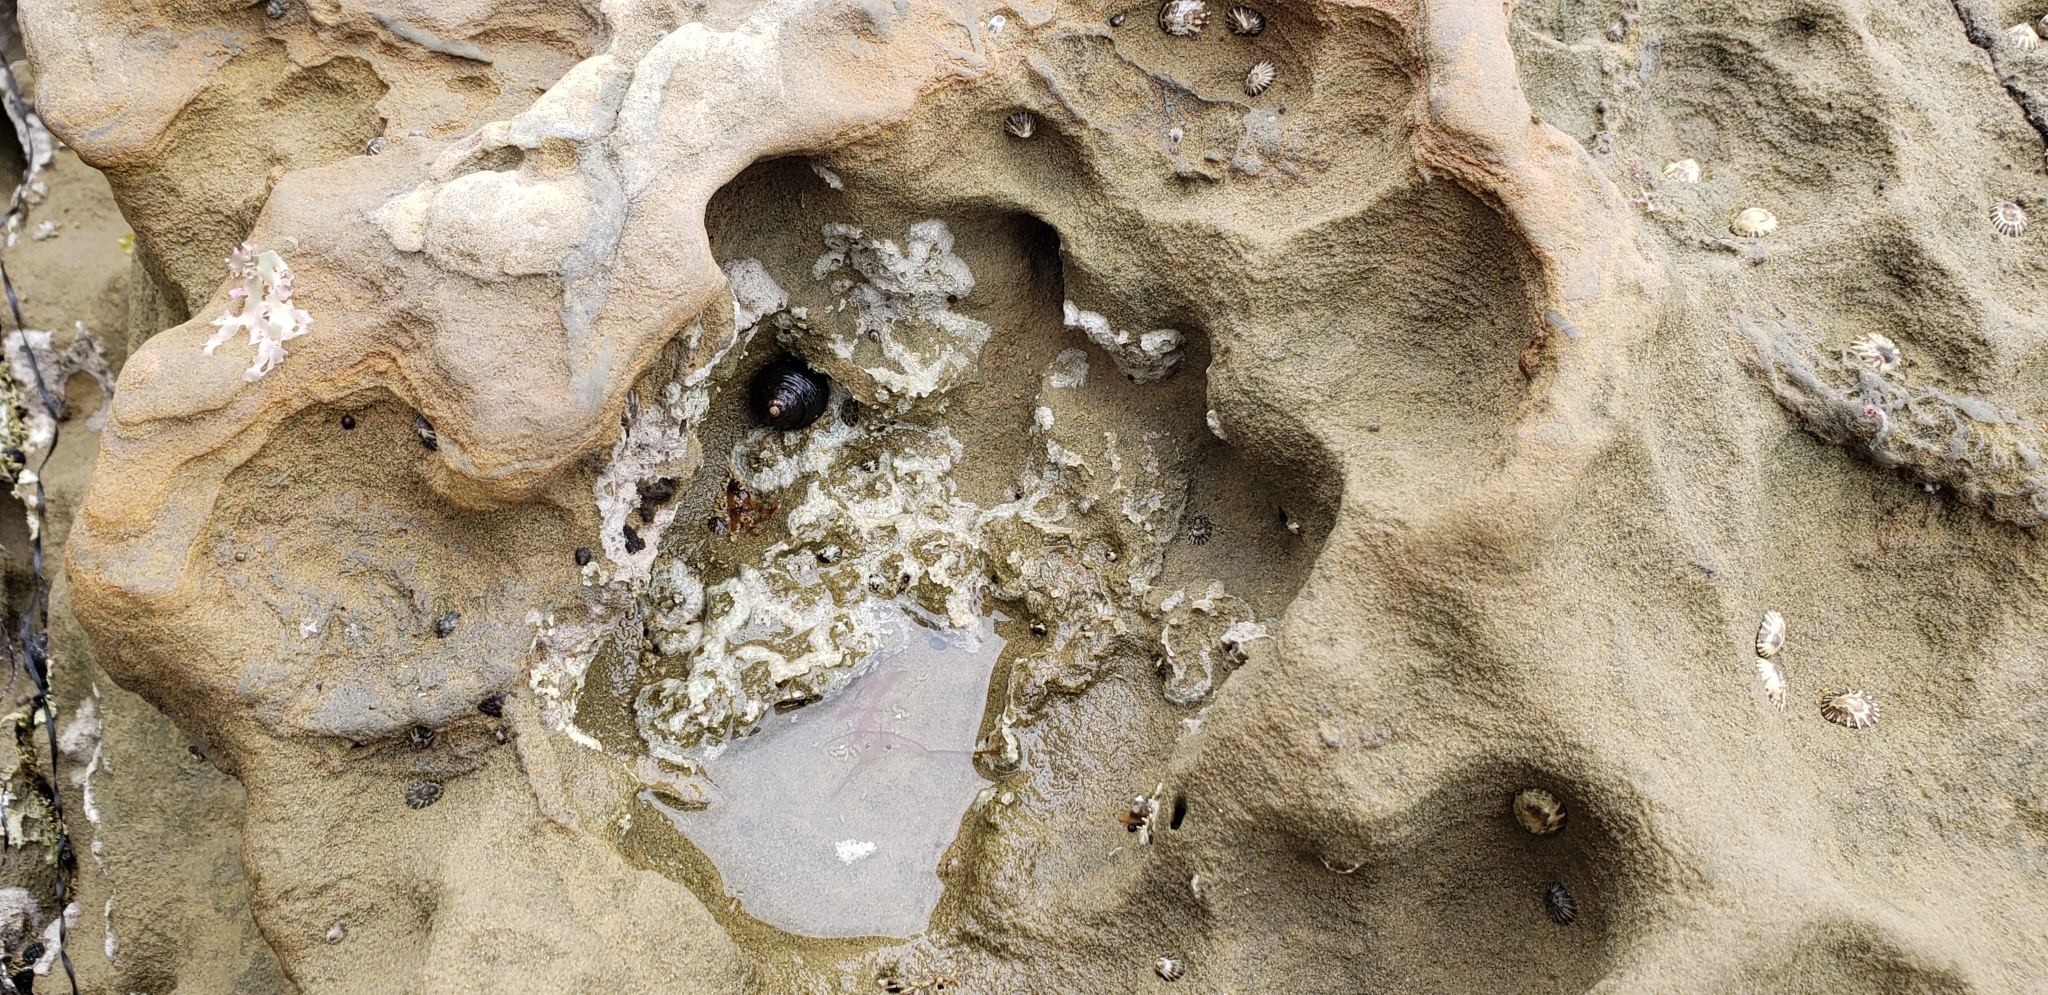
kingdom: Animalia
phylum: Mollusca
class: Gastropoda
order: Trochida
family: Tegulidae
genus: Tegula
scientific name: Tegula funebralis
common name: Black tegula
